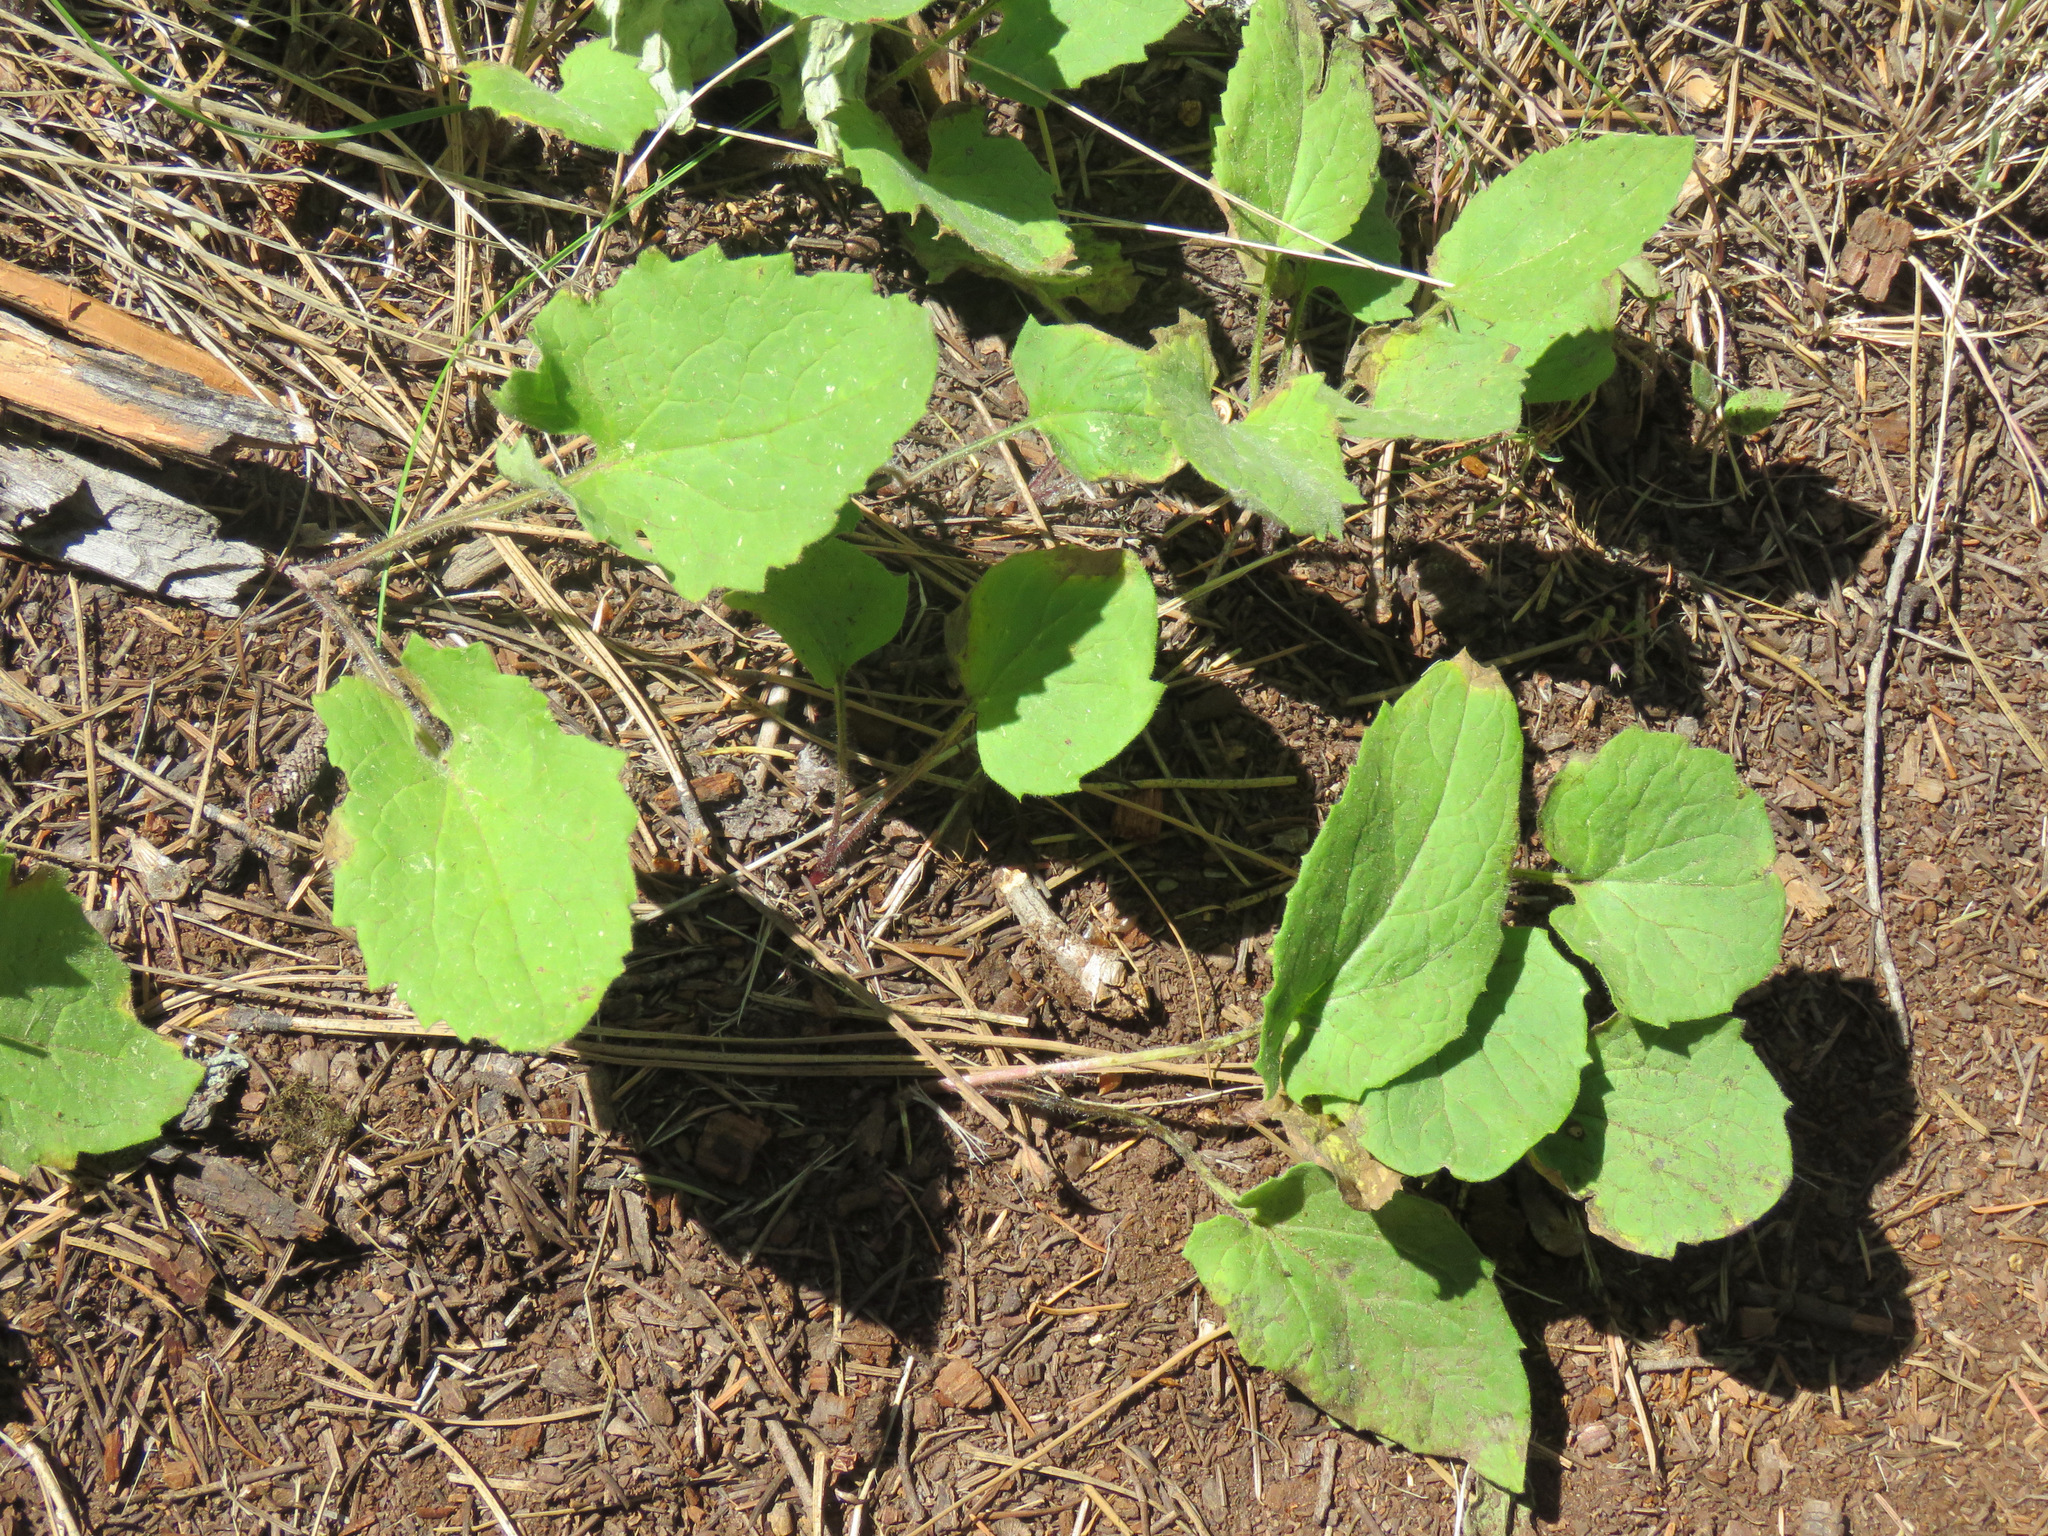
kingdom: Plantae
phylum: Tracheophyta
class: Magnoliopsida
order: Asterales
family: Asteraceae
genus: Arnica
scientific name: Arnica cordifolia
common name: Heart-leaf arnica
